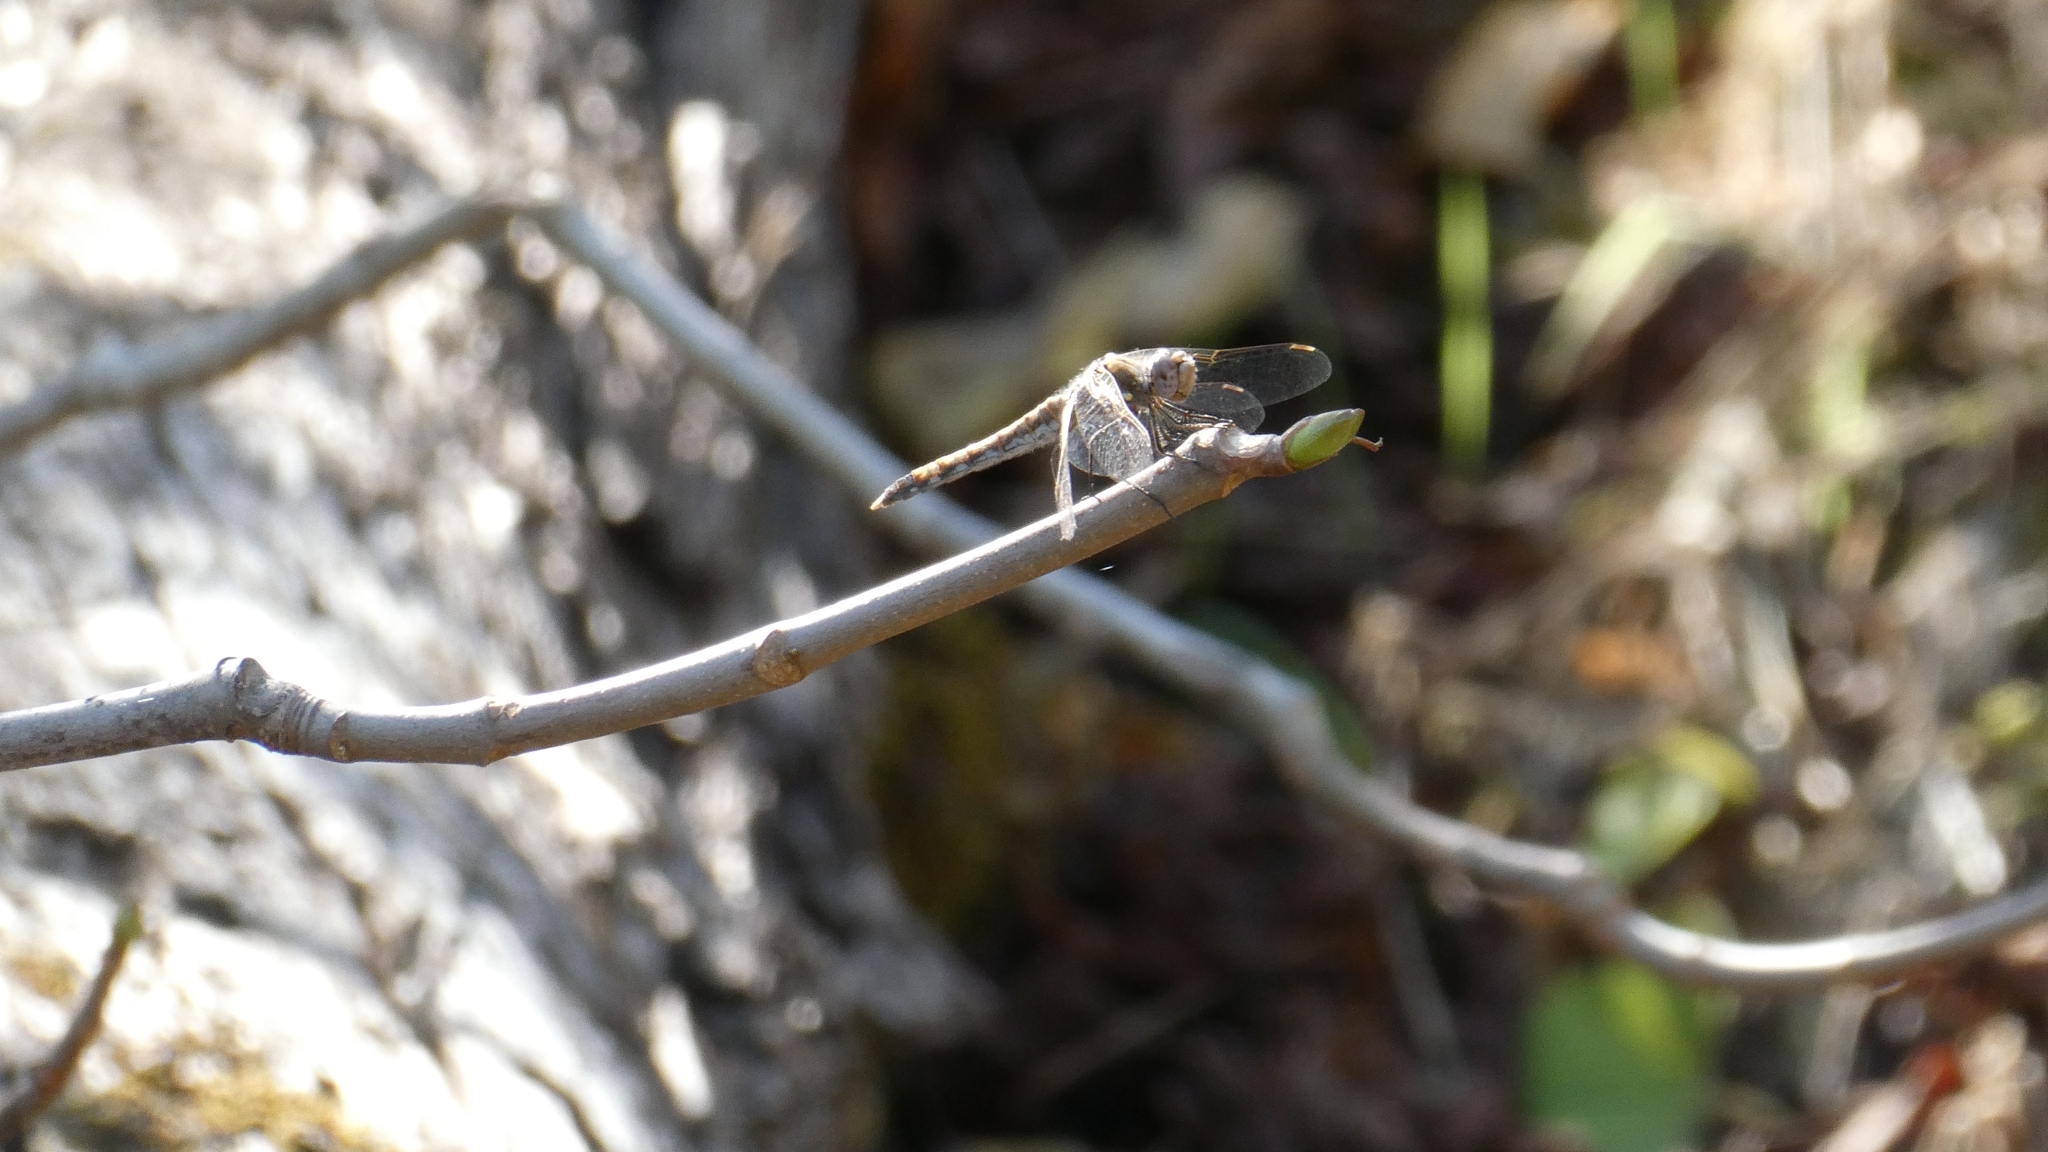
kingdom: Animalia
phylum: Arthropoda
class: Insecta
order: Odonata
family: Libellulidae
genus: Sympetrum
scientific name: Sympetrum corruptum
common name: Variegated meadowhawk
